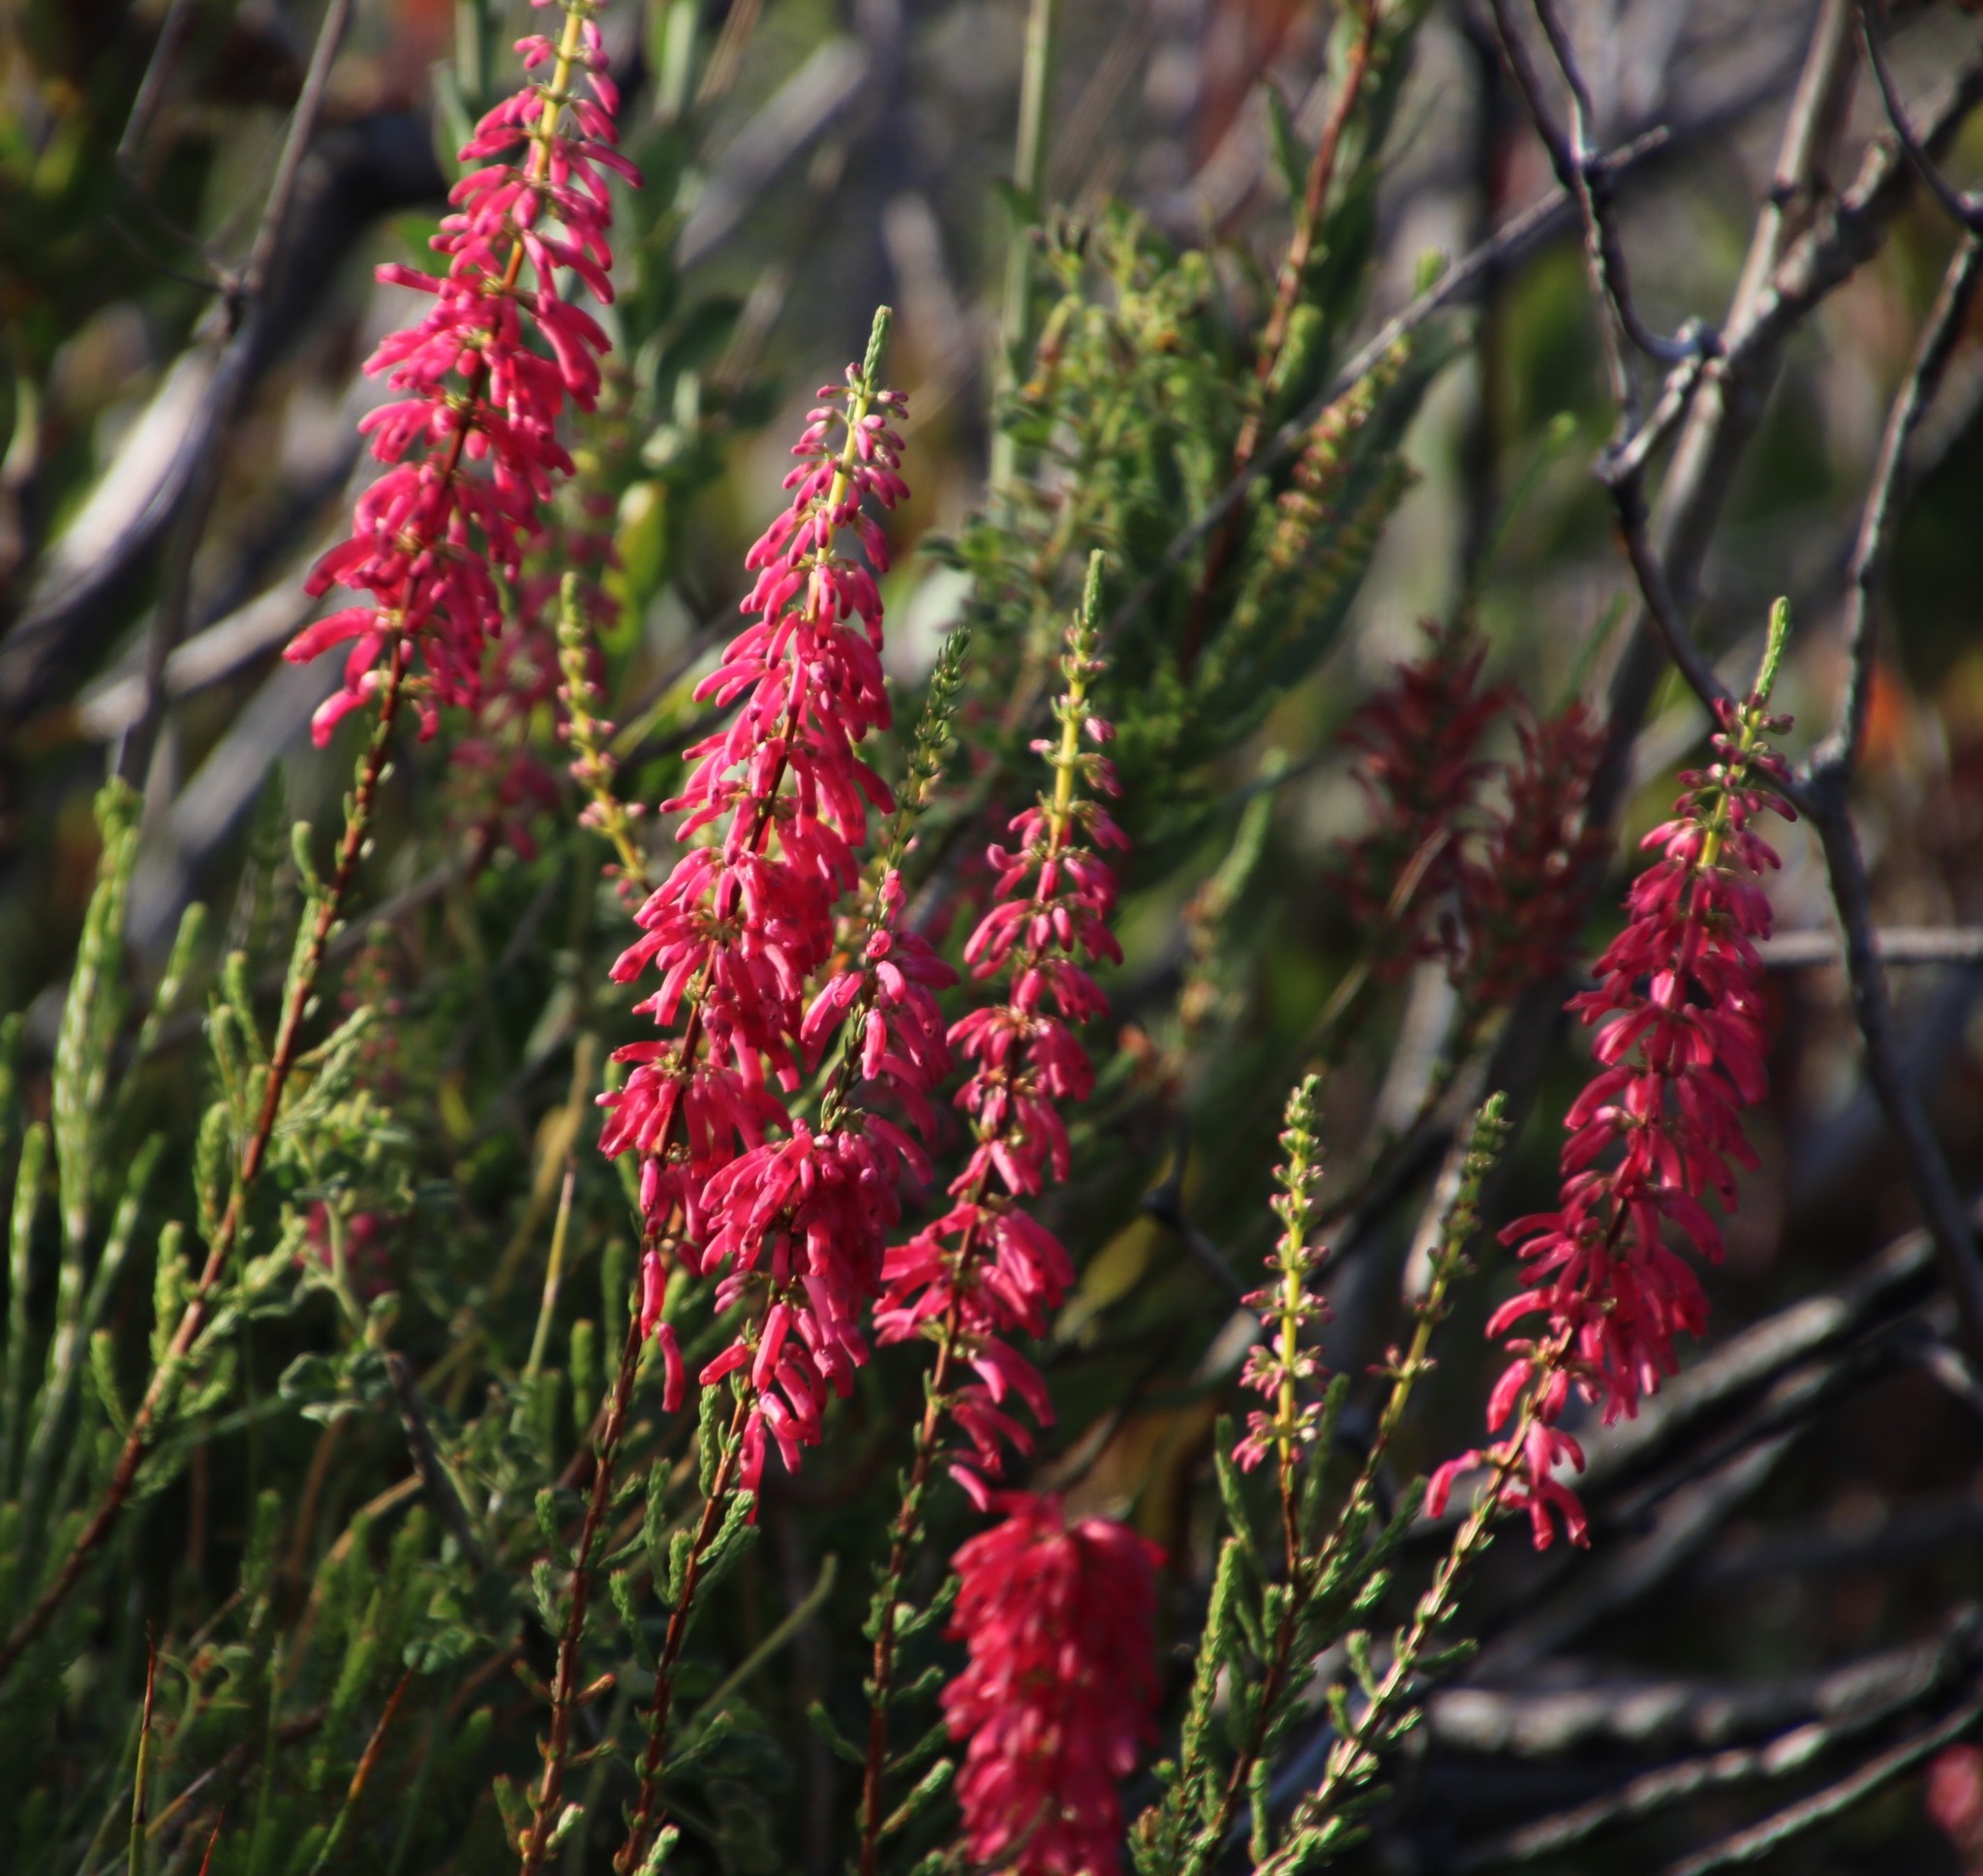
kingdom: Plantae
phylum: Tracheophyta
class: Magnoliopsida
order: Ericales
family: Ericaceae
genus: Erica
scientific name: Erica mammosa
